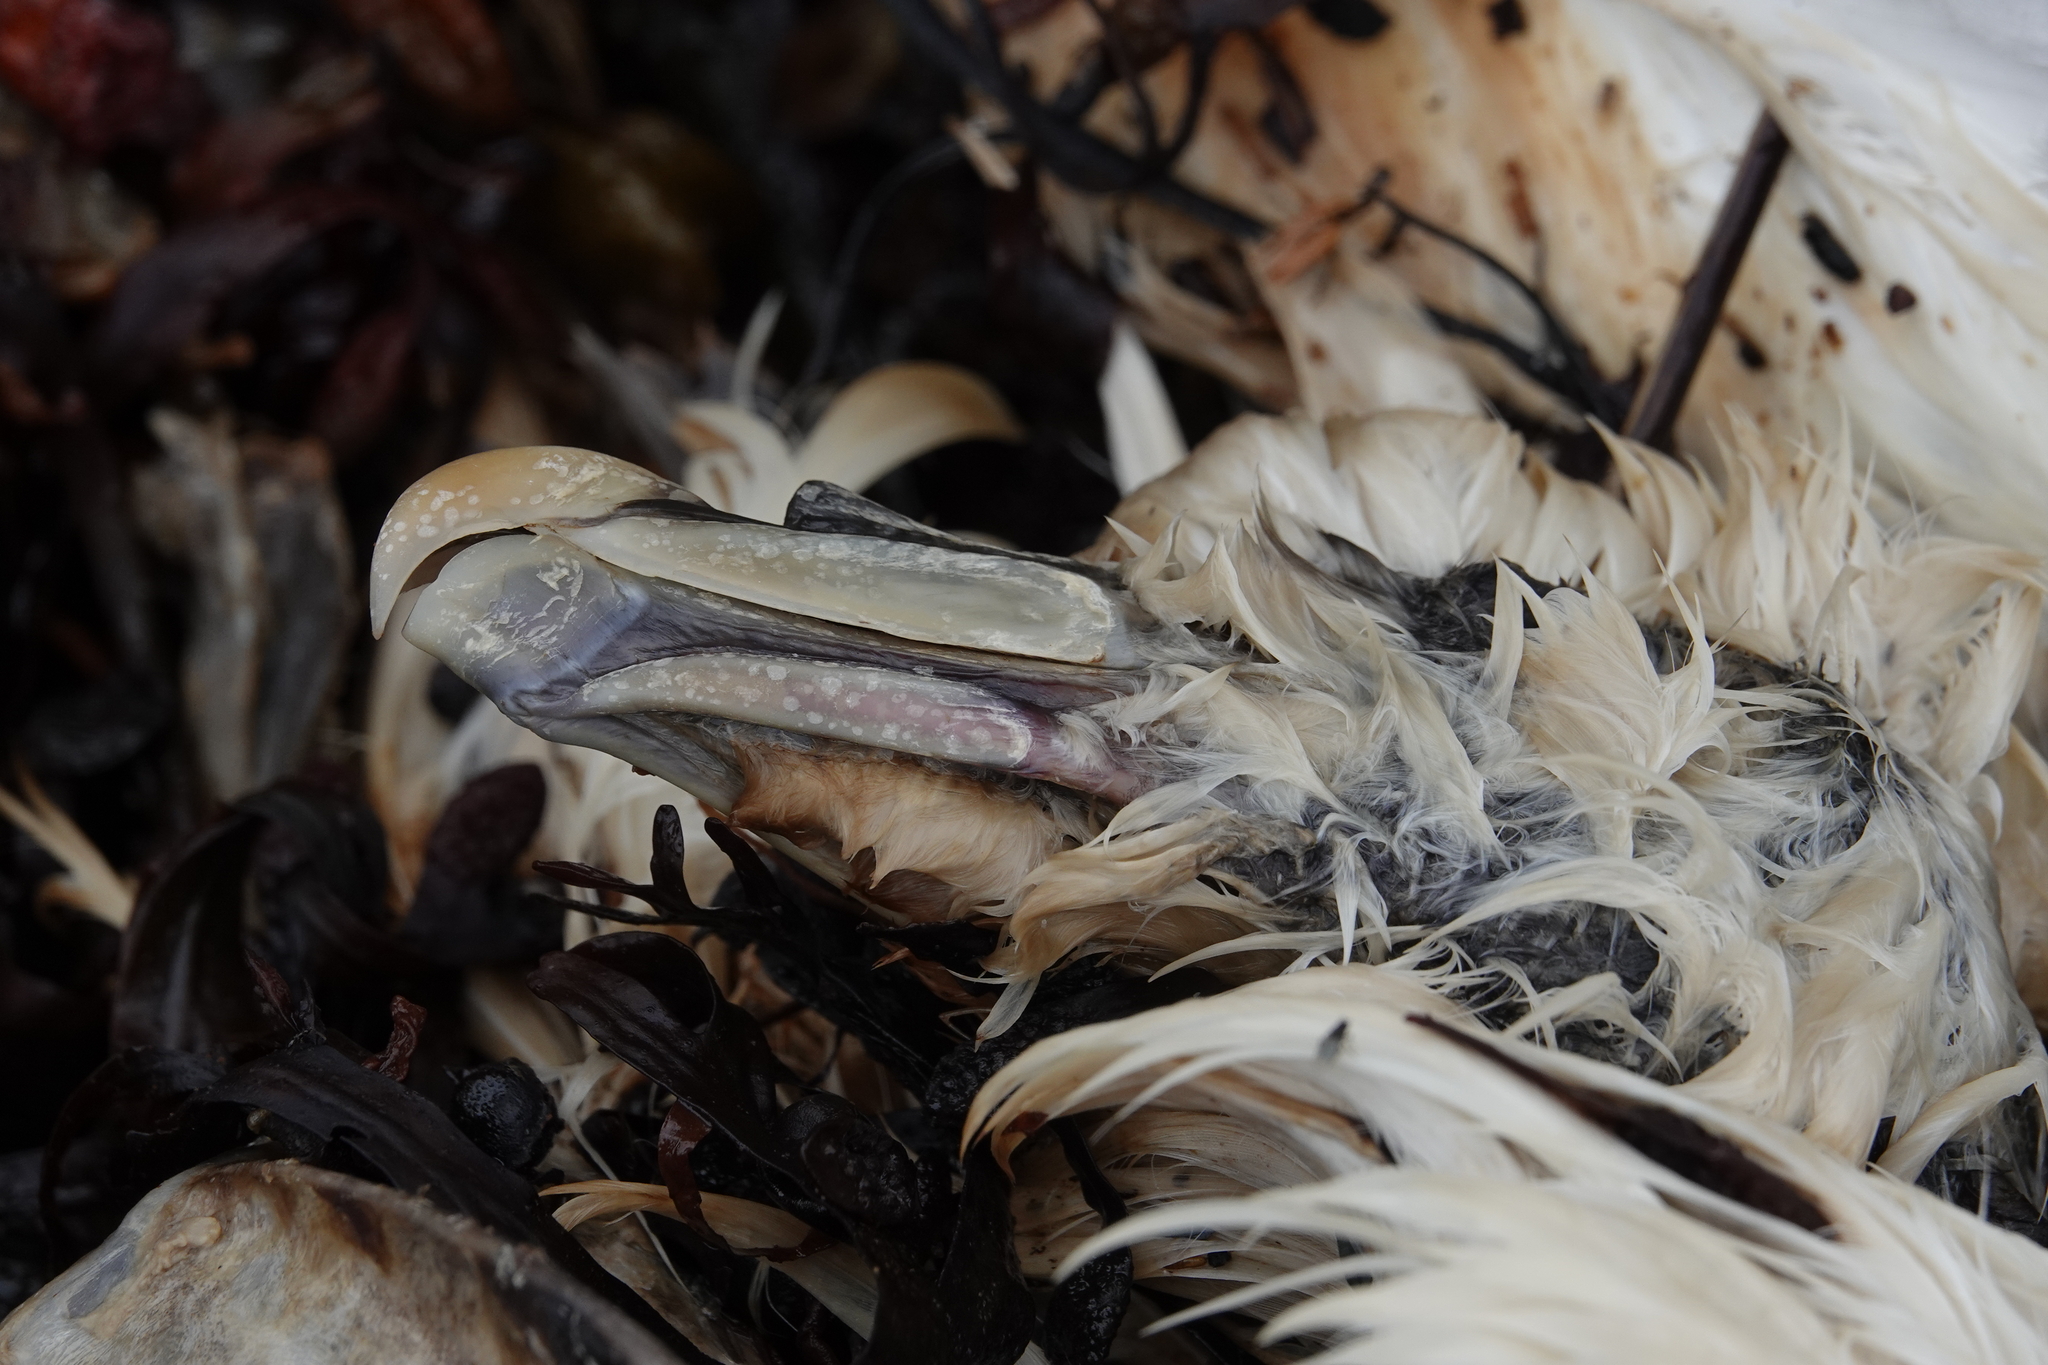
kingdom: Animalia
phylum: Chordata
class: Aves
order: Procellariiformes
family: Procellariidae
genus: Fulmarus
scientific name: Fulmarus glacialis
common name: Northern fulmar
